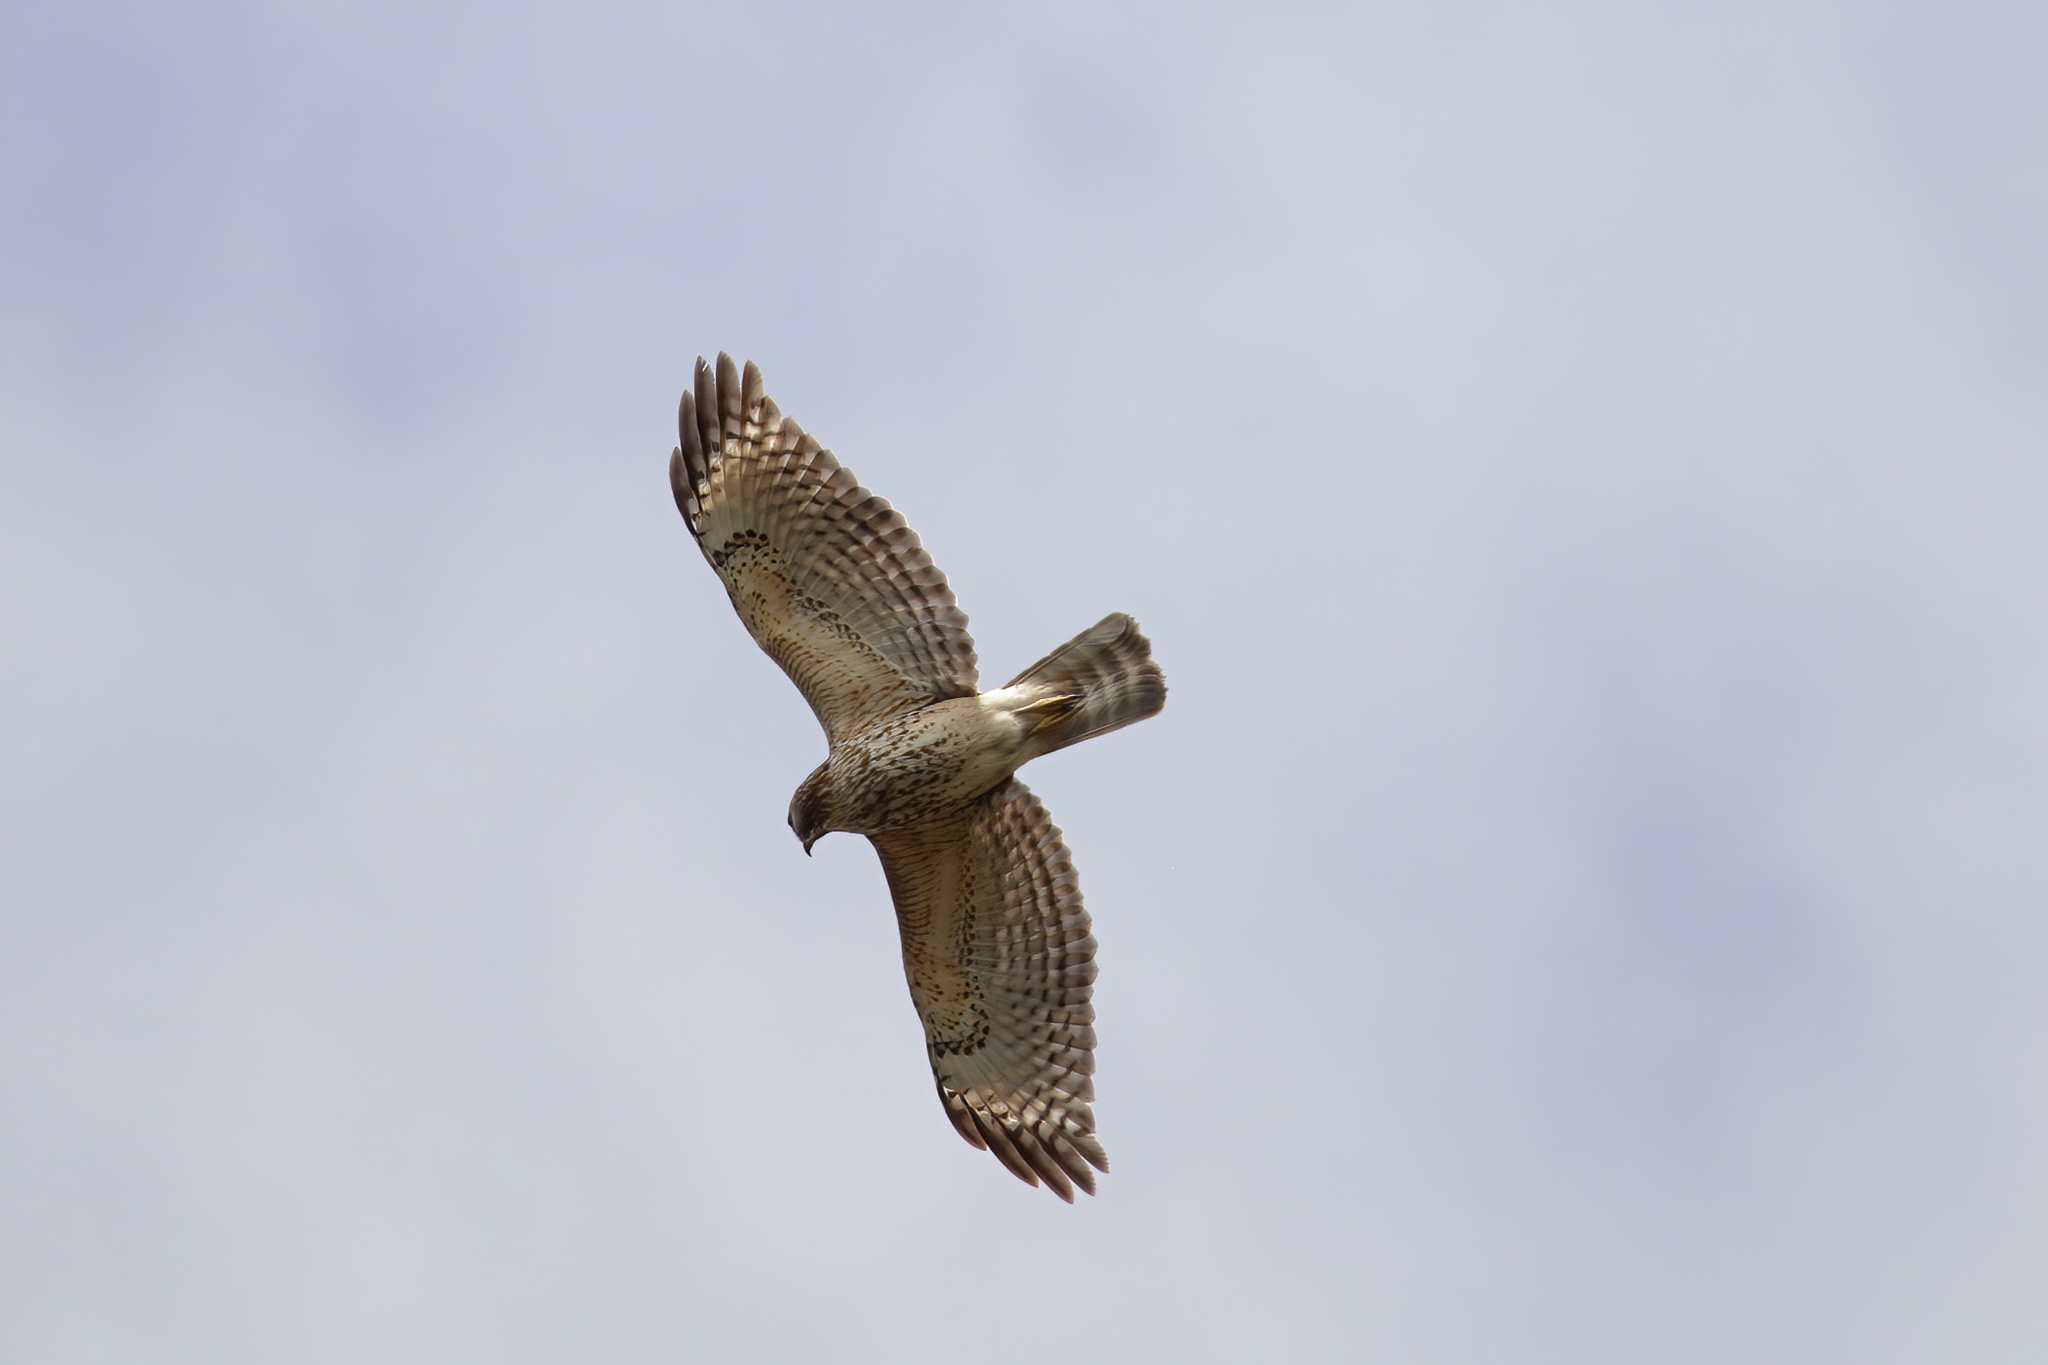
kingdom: Animalia
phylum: Chordata
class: Aves
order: Accipitriformes
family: Accipitridae
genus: Buteo
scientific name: Buteo lineatus
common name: Red-shouldered hawk
